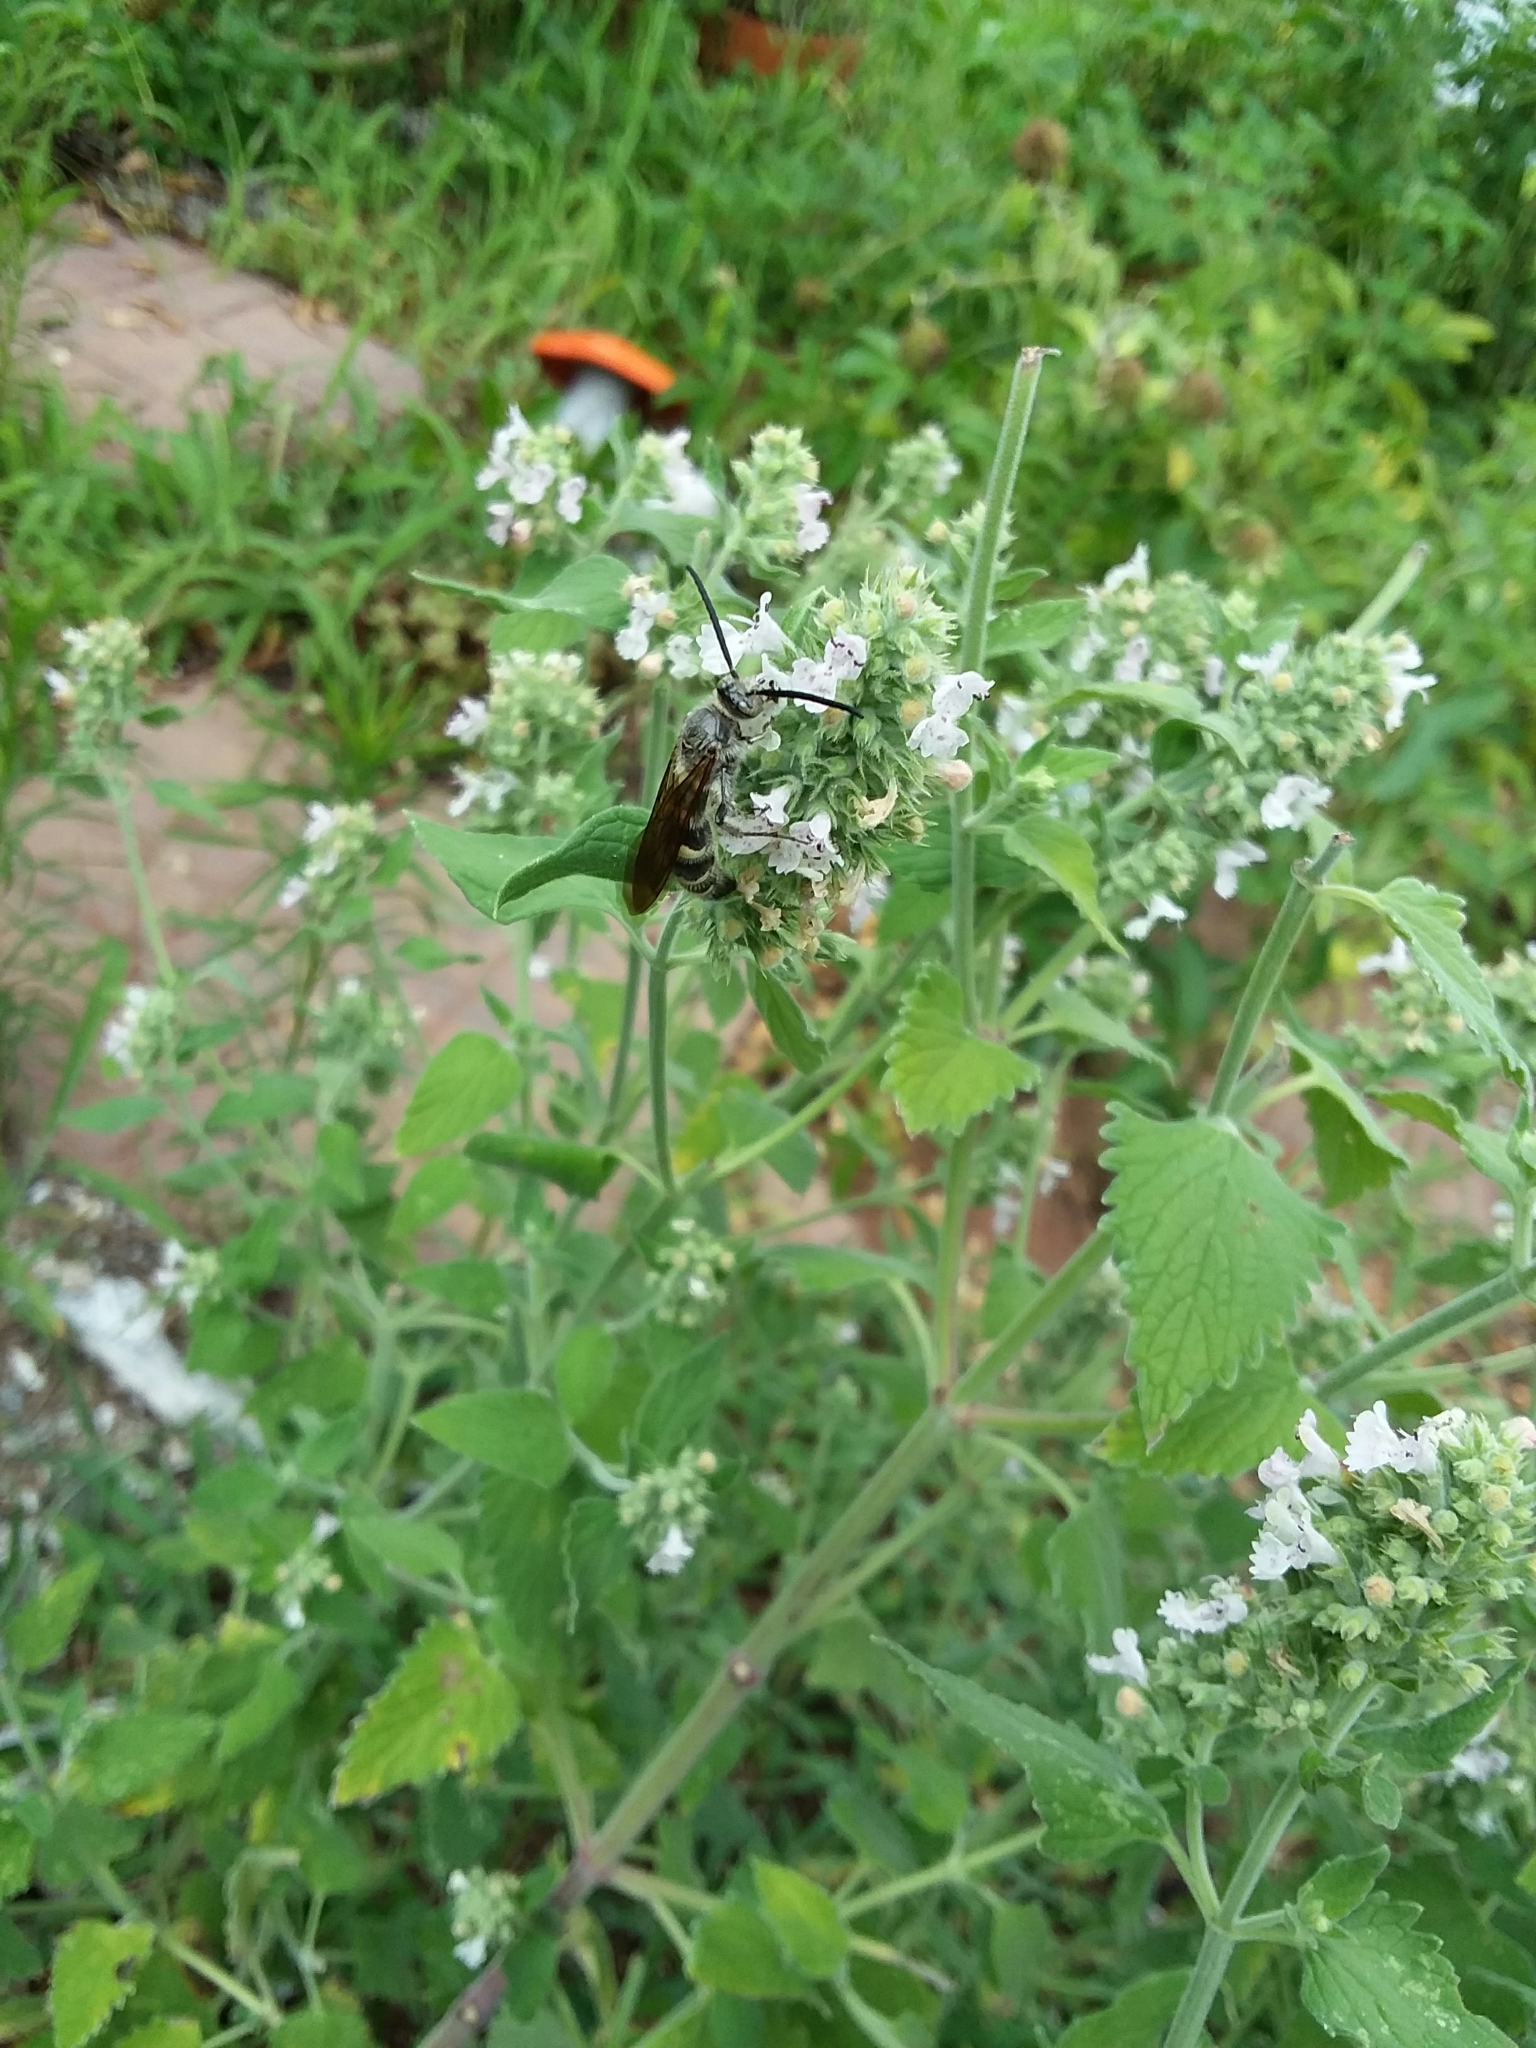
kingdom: Animalia
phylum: Arthropoda
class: Insecta
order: Hymenoptera
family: Scoliidae
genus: Dielis
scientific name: Dielis
